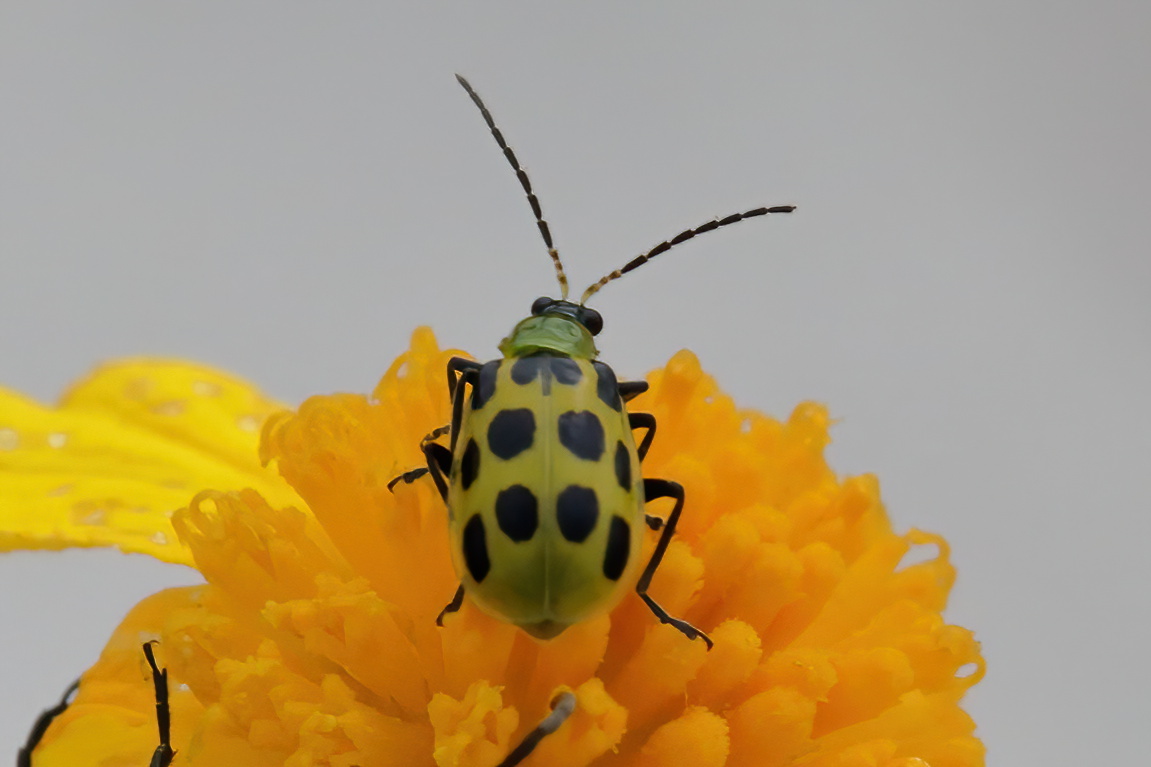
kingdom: Animalia
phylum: Arthropoda
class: Insecta
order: Coleoptera
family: Chrysomelidae
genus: Diabrotica
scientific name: Diabrotica undecimpunctata
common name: Spotted cucumber beetle
